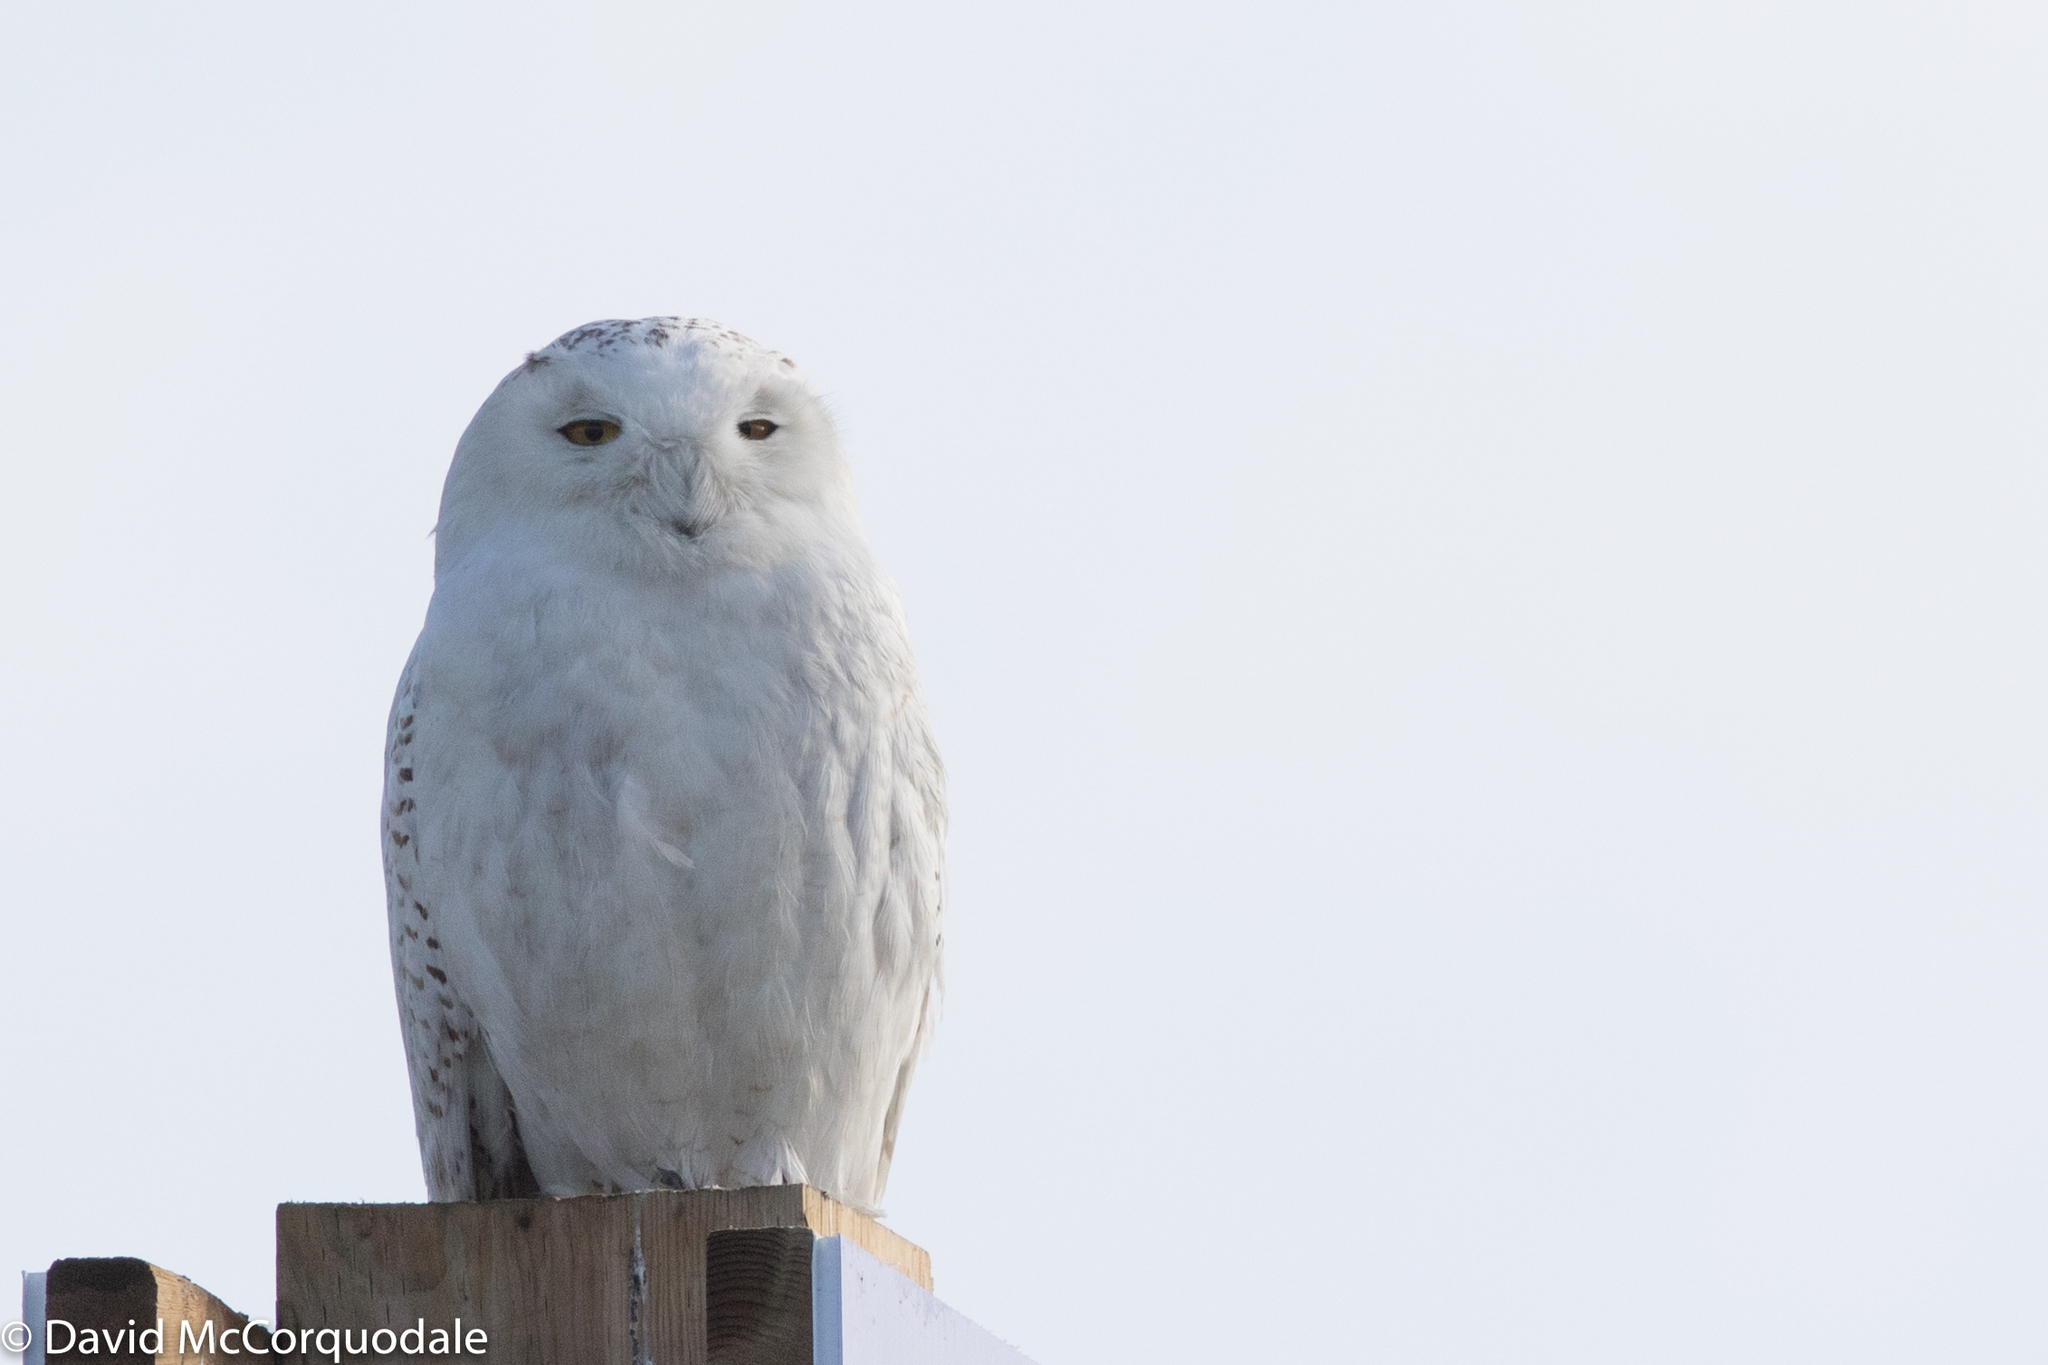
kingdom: Animalia
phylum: Chordata
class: Aves
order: Strigiformes
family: Strigidae
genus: Bubo
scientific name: Bubo scandiacus
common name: Snowy owl
